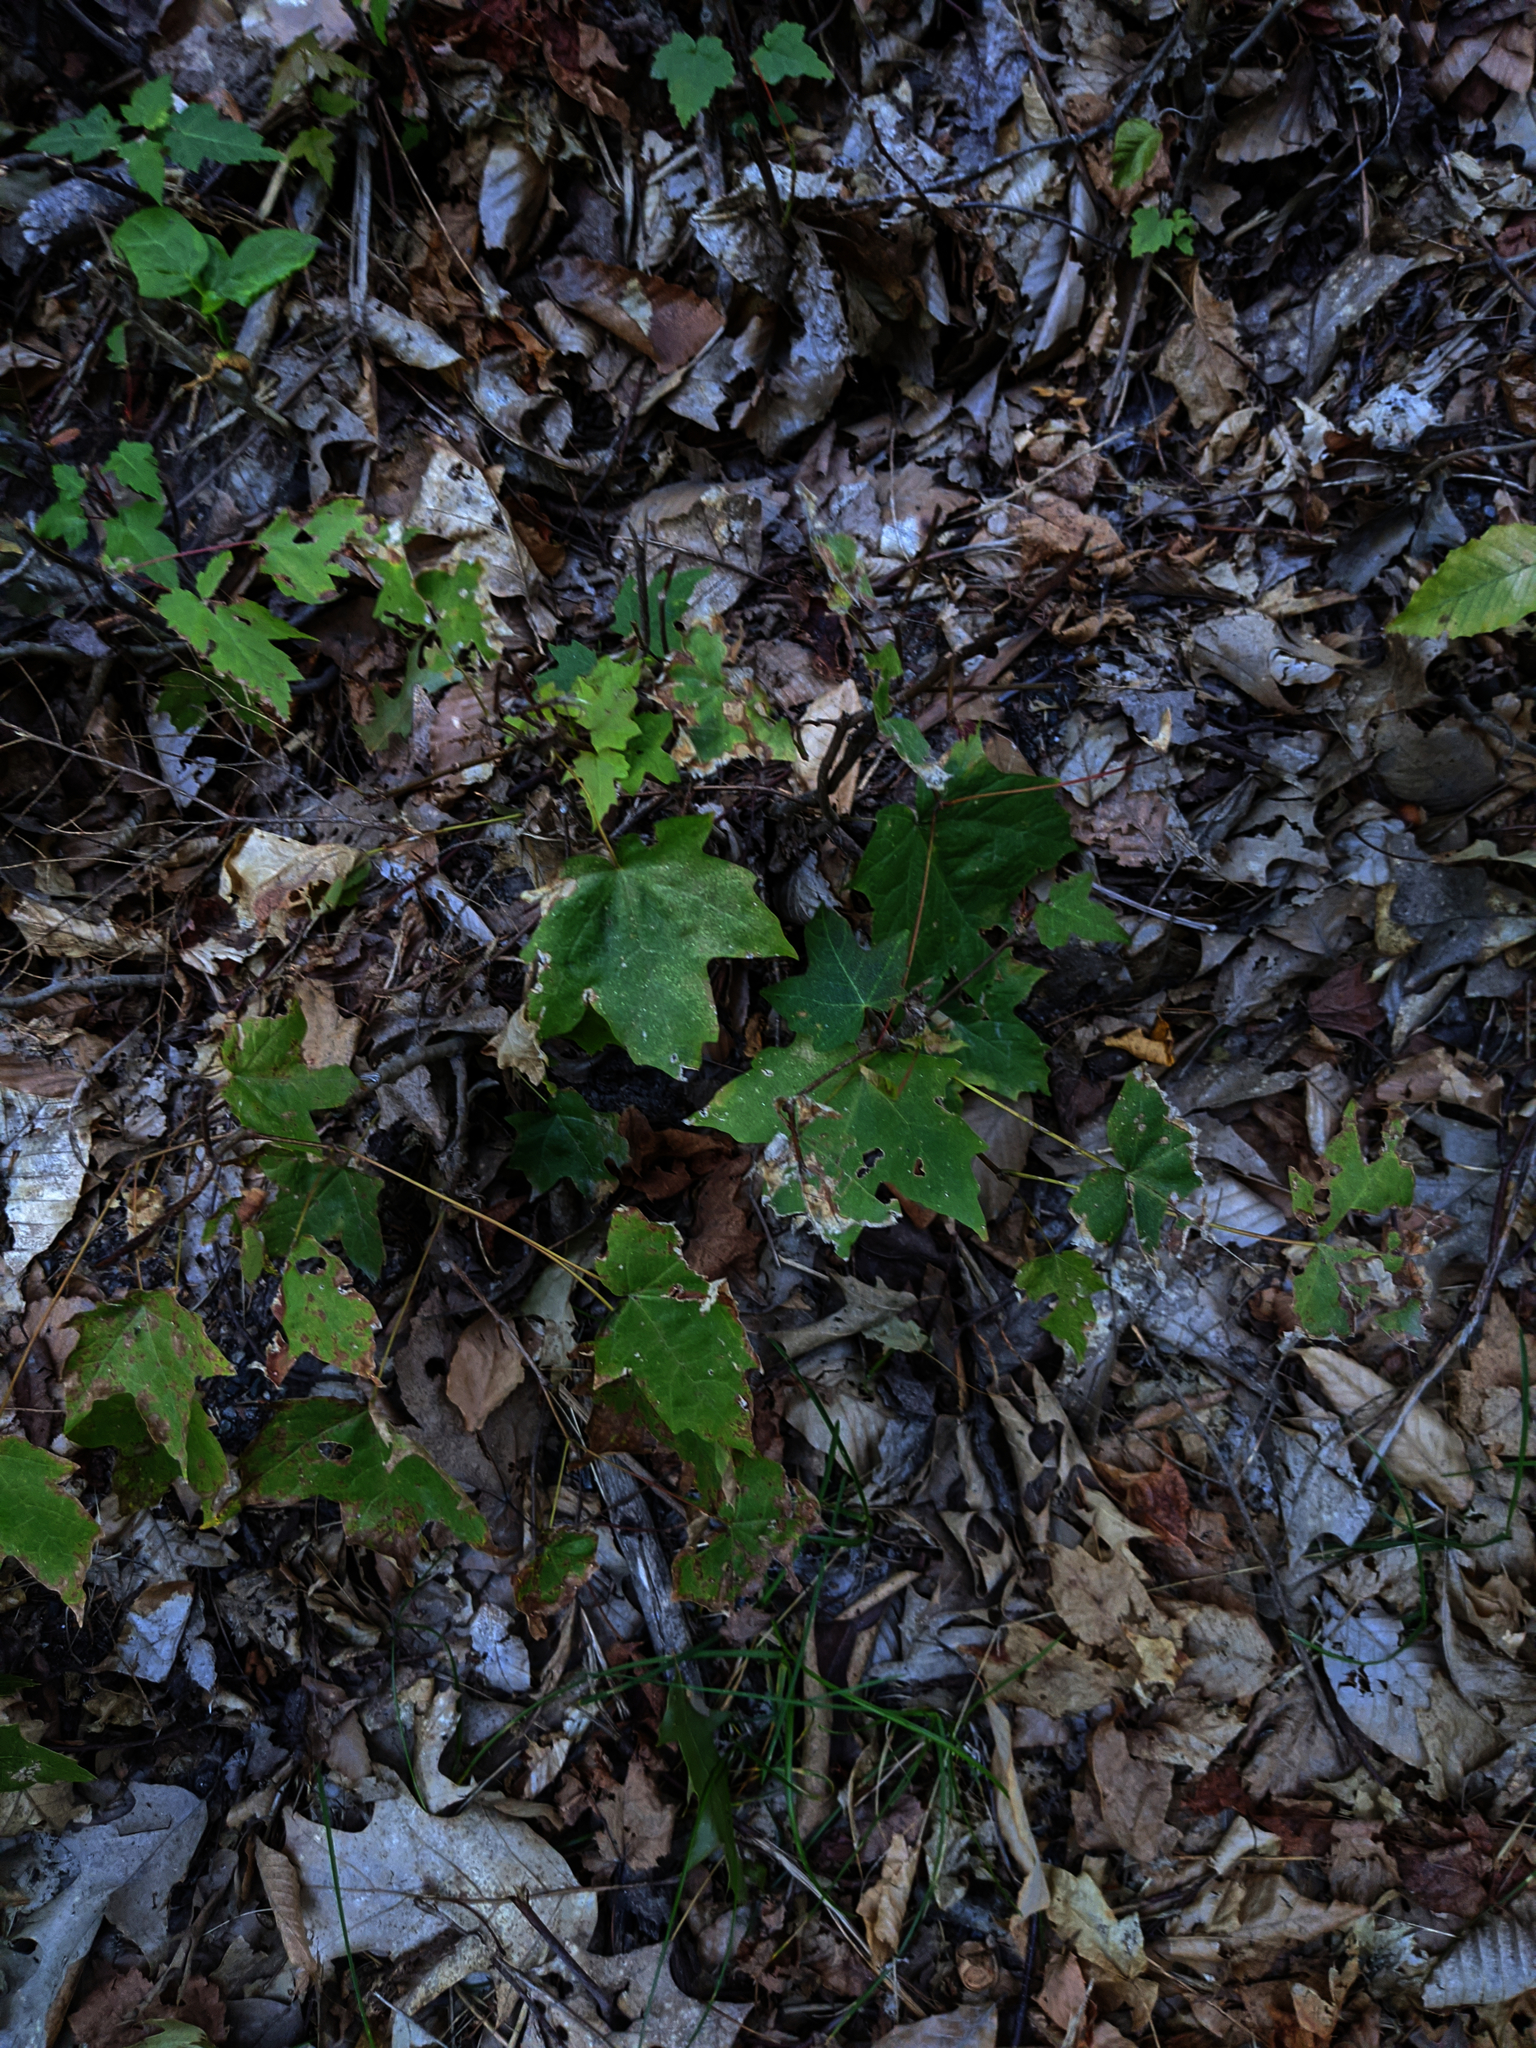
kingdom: Plantae
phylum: Tracheophyta
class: Magnoliopsida
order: Sapindales
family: Sapindaceae
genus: Acer
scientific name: Acer saccharum
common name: Sugar maple
